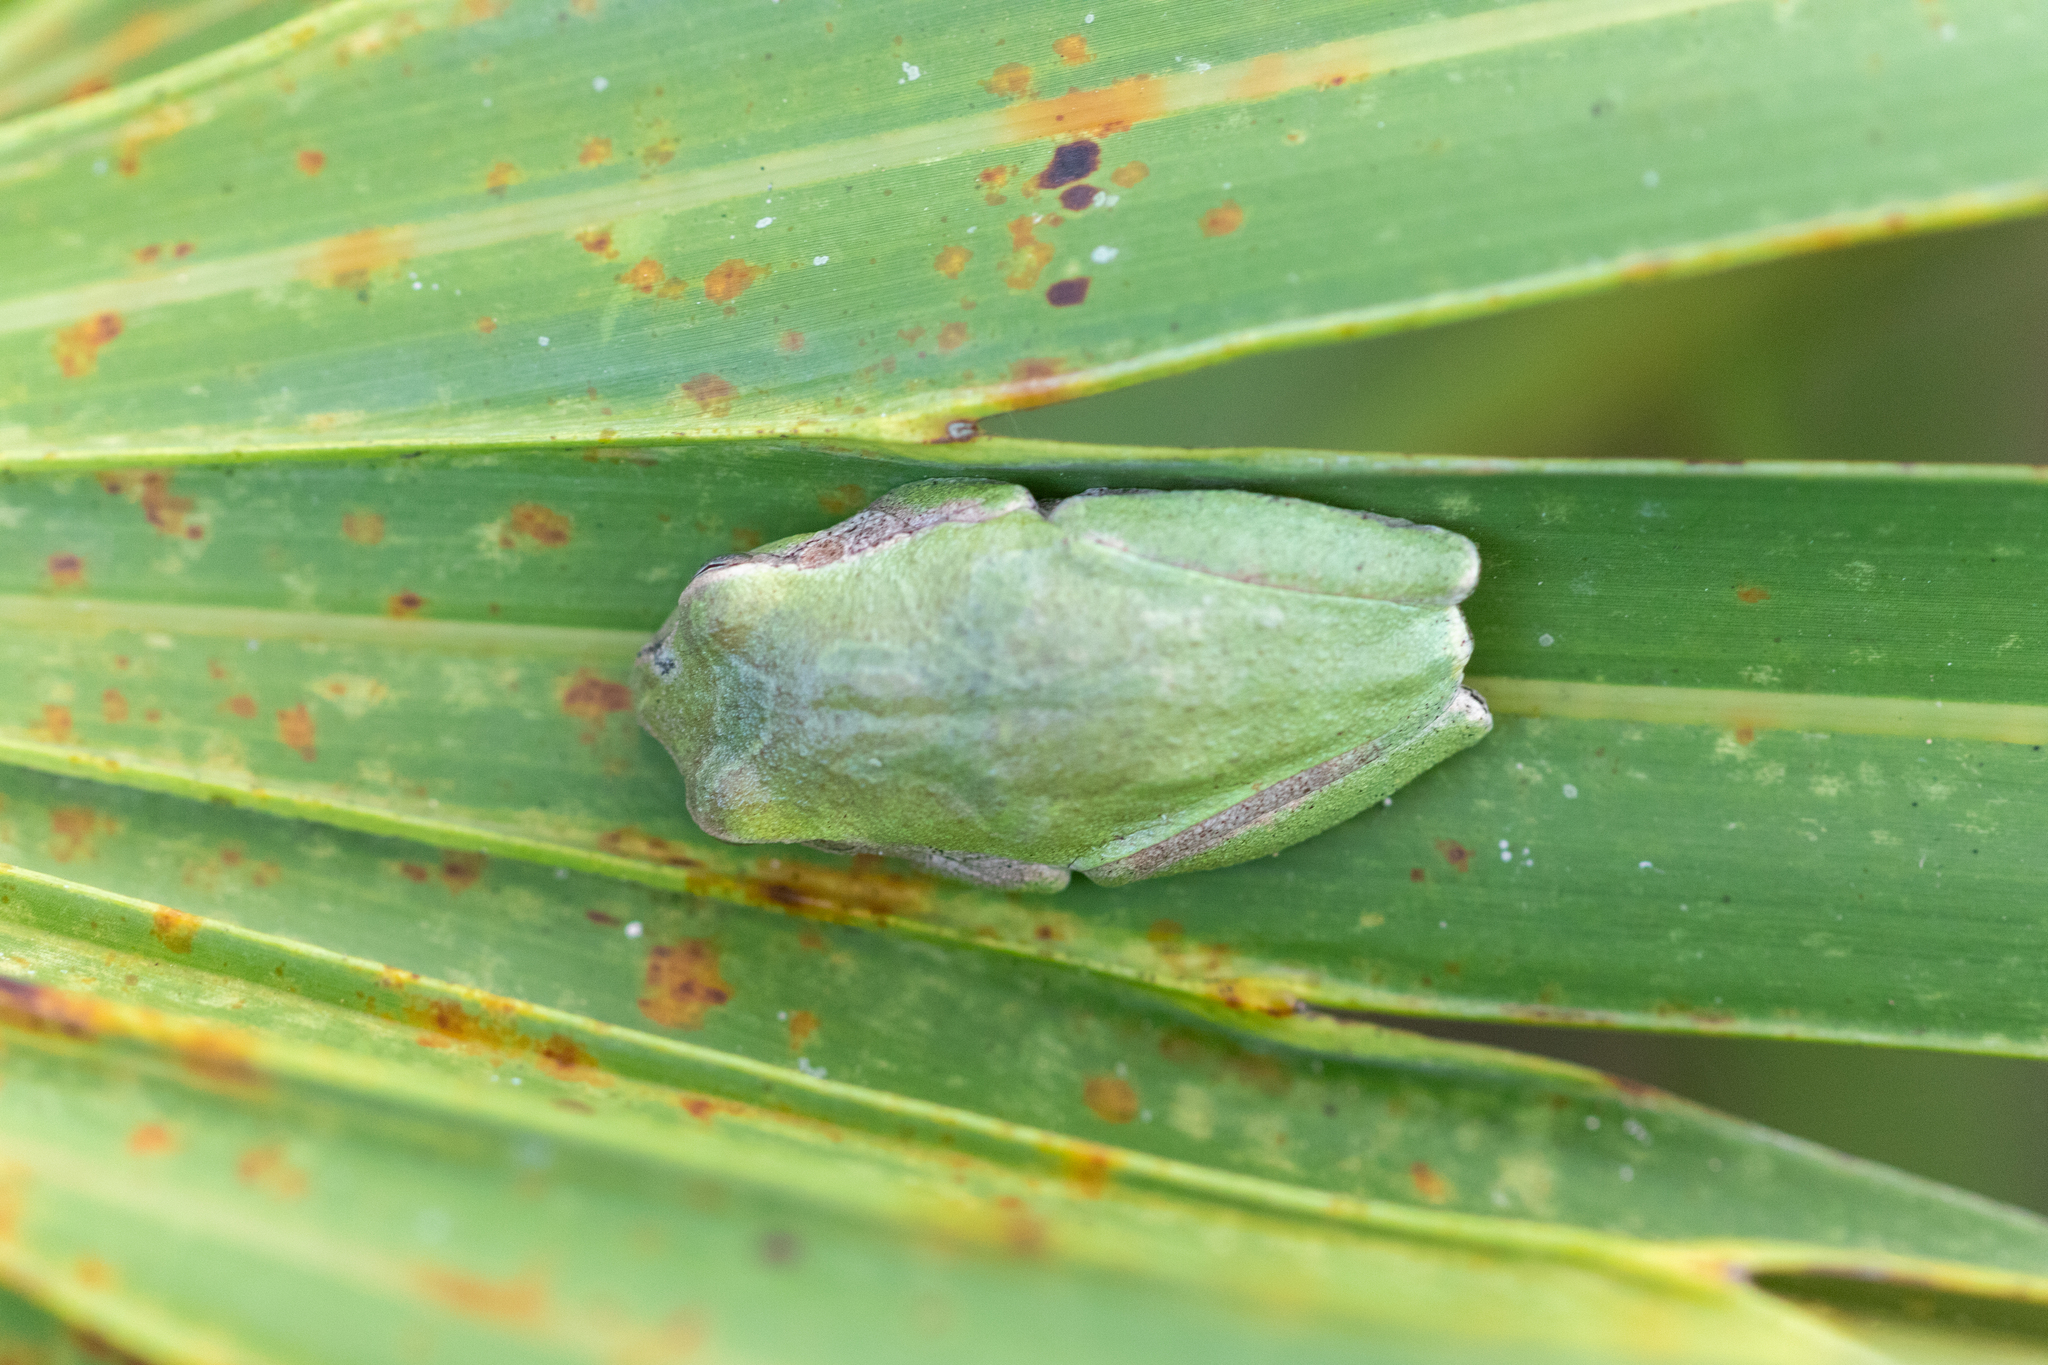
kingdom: Animalia
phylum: Chordata
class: Amphibia
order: Anura
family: Hylidae
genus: Hyla
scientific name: Hyla femoralis
